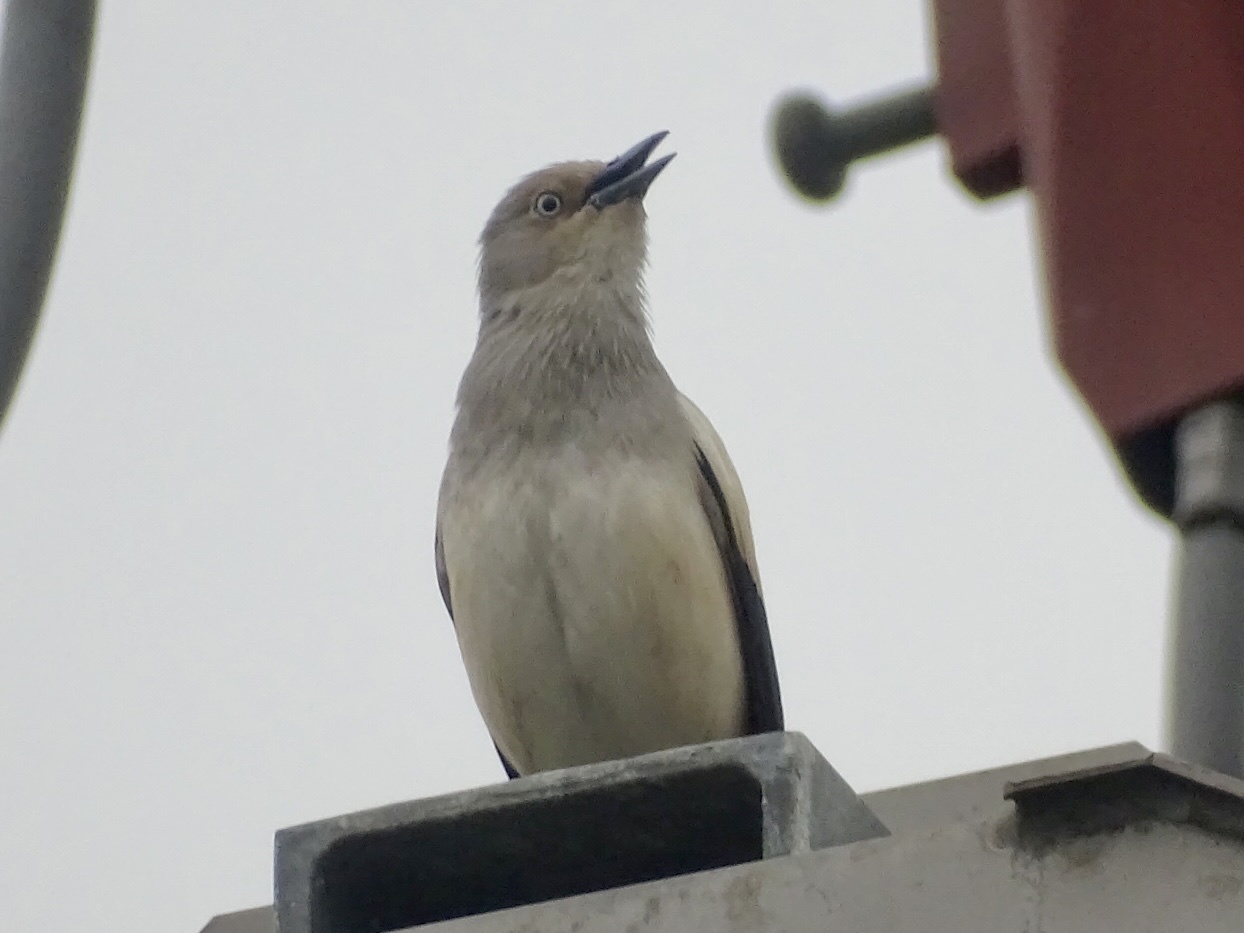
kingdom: Animalia
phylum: Chordata
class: Aves
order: Passeriformes
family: Sturnidae
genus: Sturnia
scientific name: Sturnia sinensis
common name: White-shouldered starling
